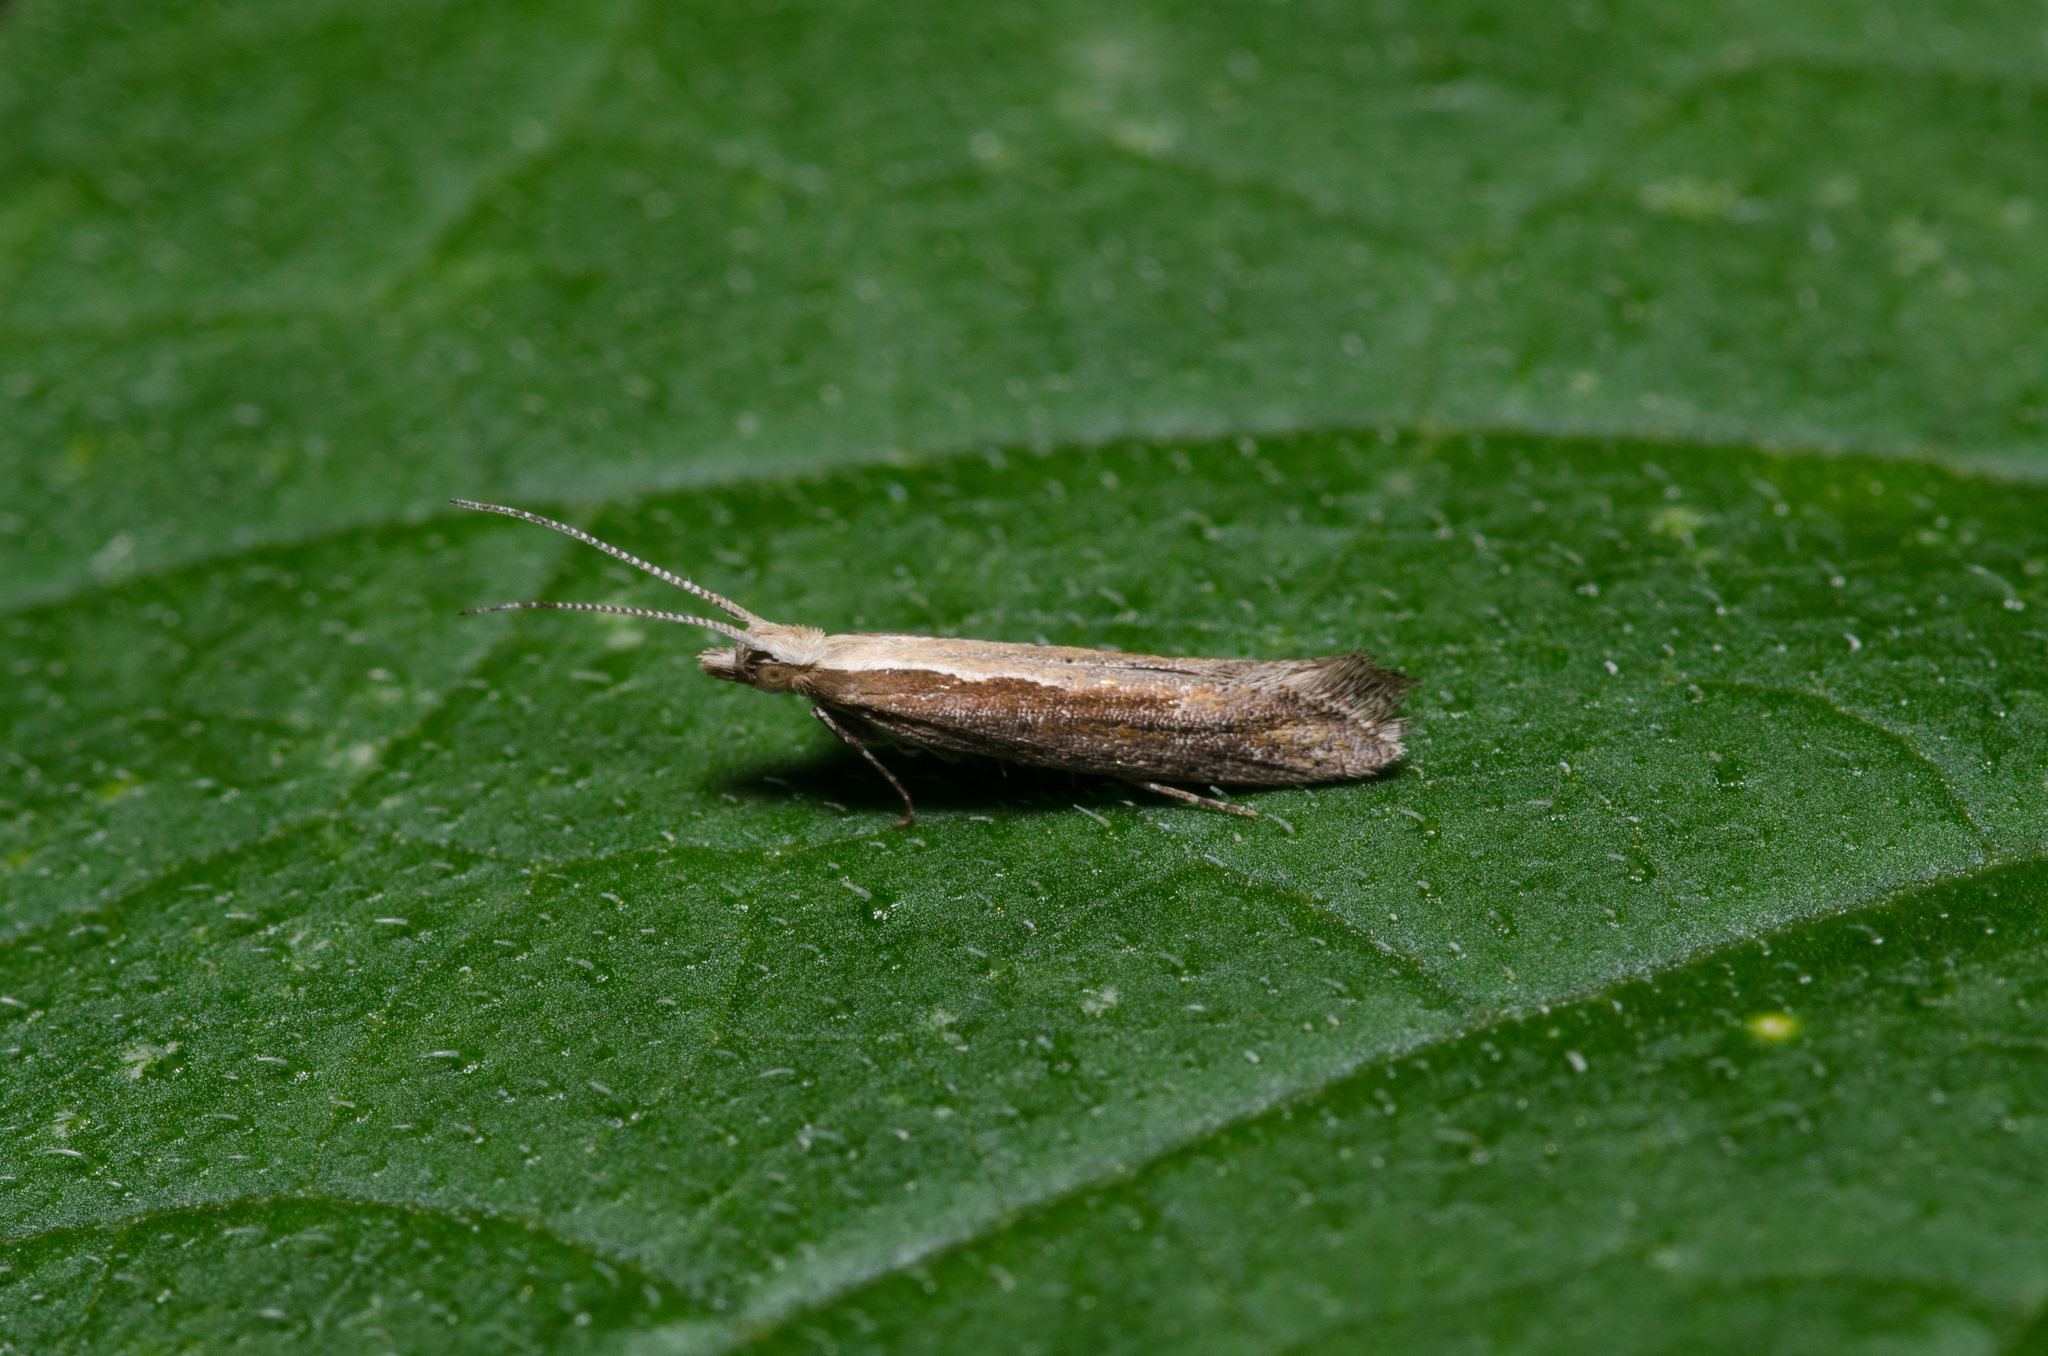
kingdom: Animalia
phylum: Arthropoda
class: Insecta
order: Lepidoptera
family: Plutellidae
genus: Plutella
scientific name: Plutella xylostella
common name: Diamond-back moth
